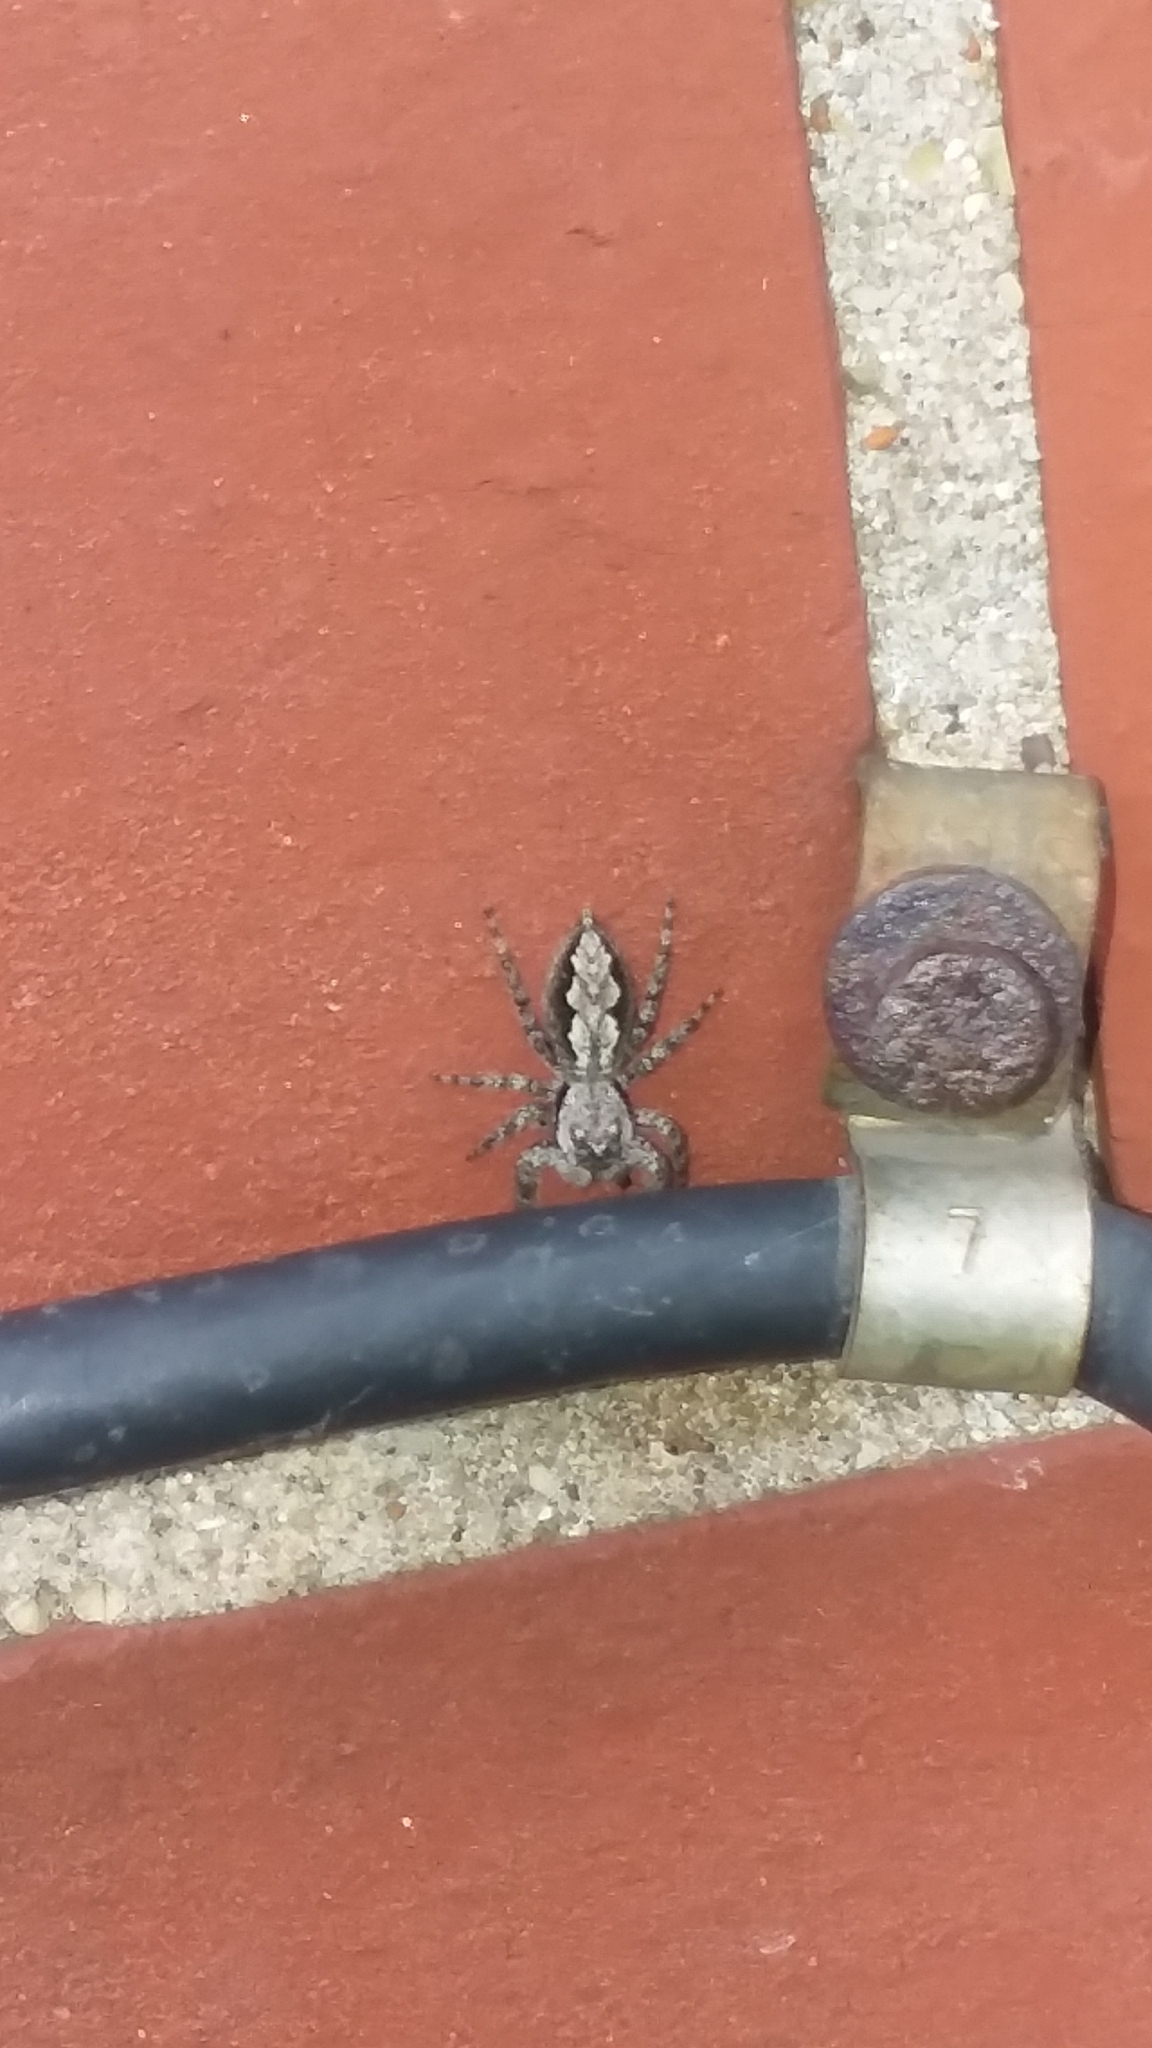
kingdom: Animalia
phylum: Arthropoda
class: Arachnida
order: Araneae
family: Salticidae
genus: Platycryptus
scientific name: Platycryptus undatus
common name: Tan jumping spider
